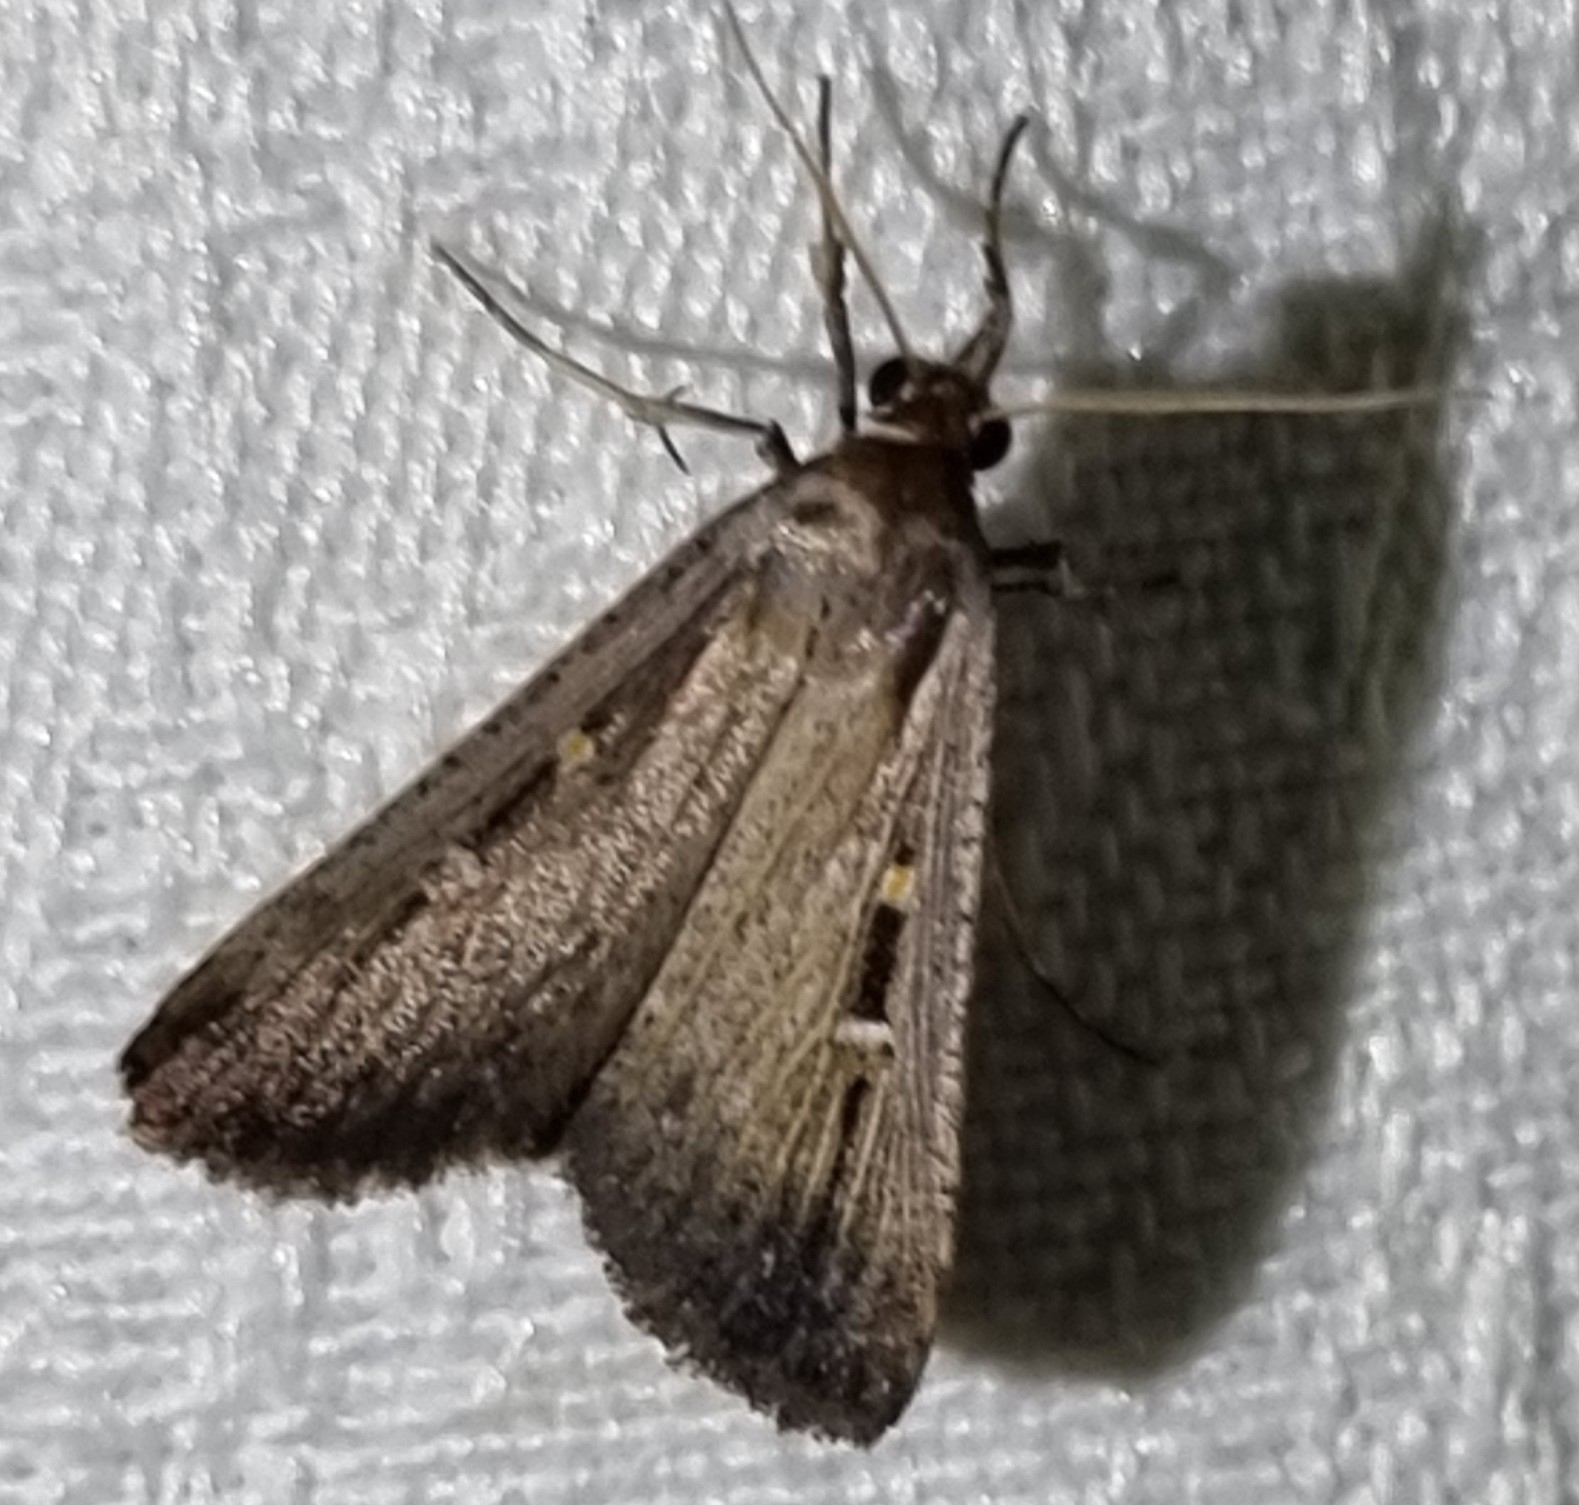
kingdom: Animalia
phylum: Arthropoda
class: Insecta
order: Lepidoptera
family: Noctuidae
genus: Tathorhynchus
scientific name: Tathorhynchus fallax
